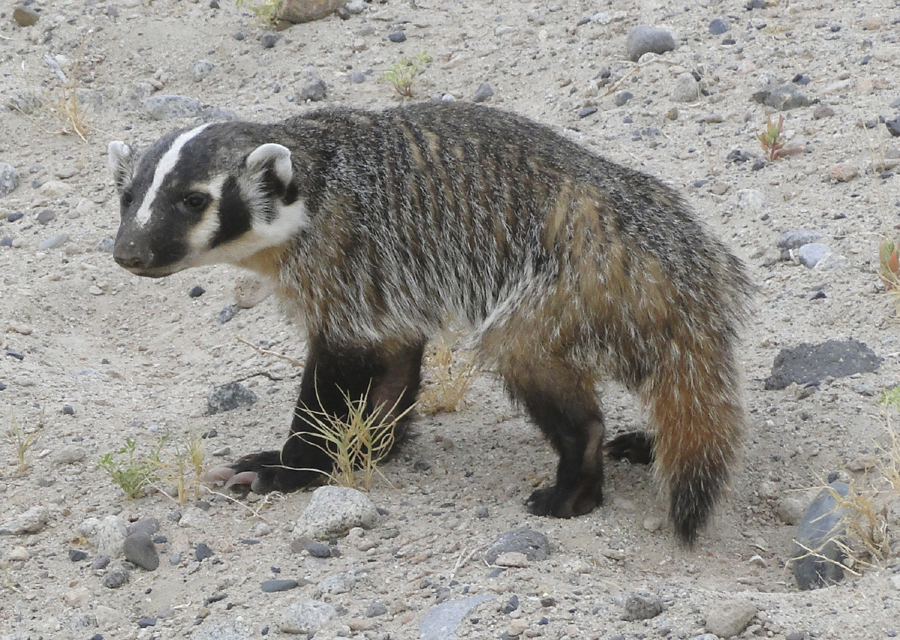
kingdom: Animalia
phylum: Chordata
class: Mammalia
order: Carnivora
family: Mustelidae
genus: Taxidea
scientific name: Taxidea taxus
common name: American badger
